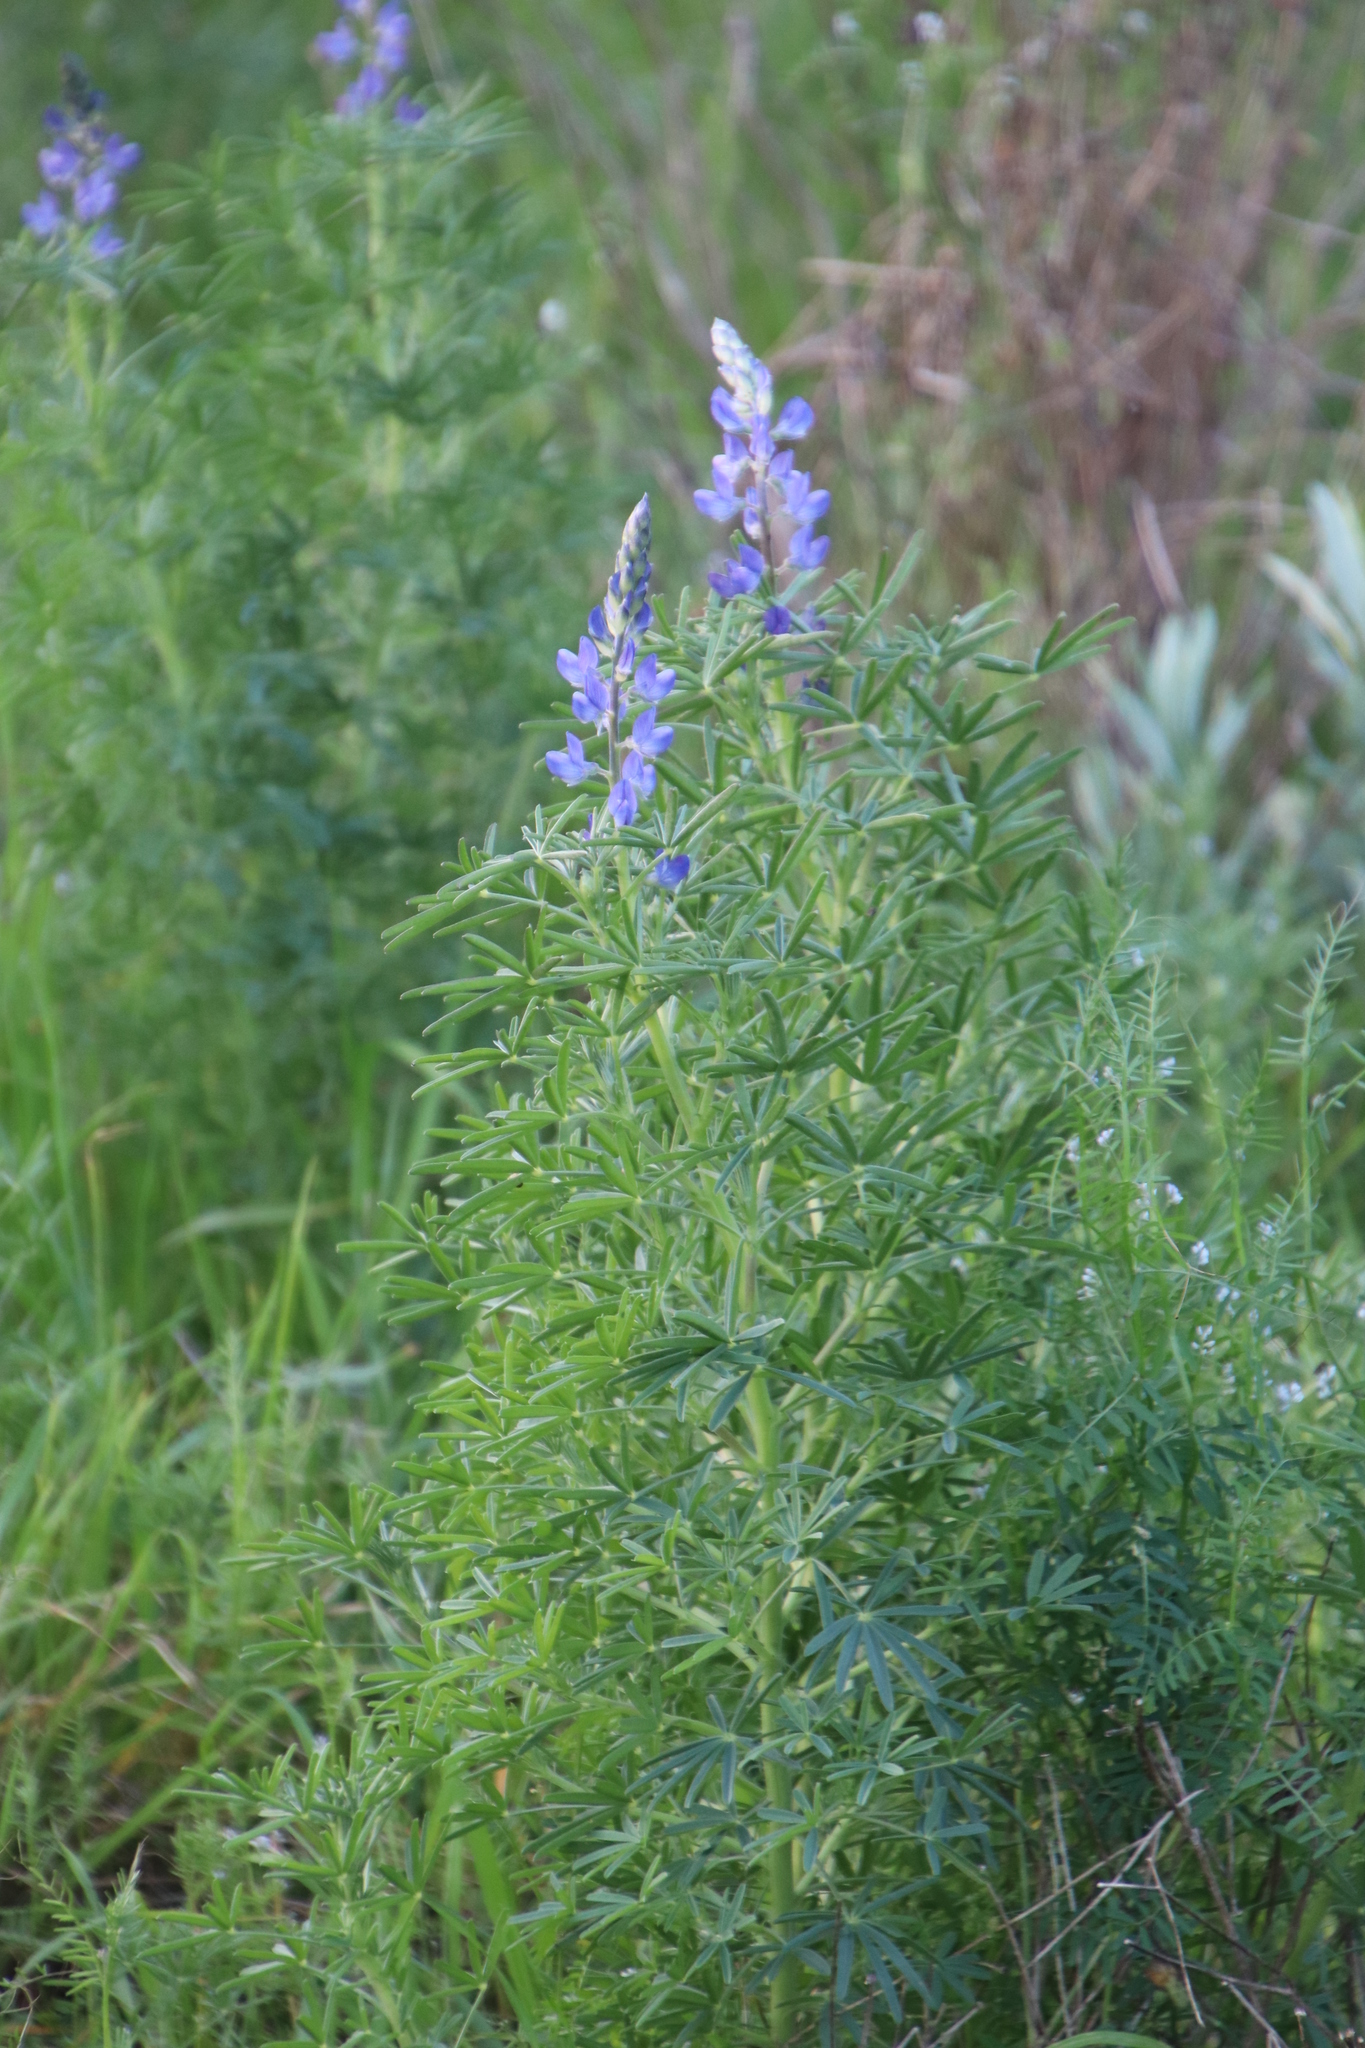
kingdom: Plantae
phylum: Tracheophyta
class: Magnoliopsida
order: Fabales
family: Fabaceae
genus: Lupinus
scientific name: Lupinus angustifolius
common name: Narrow-leaved lupin
